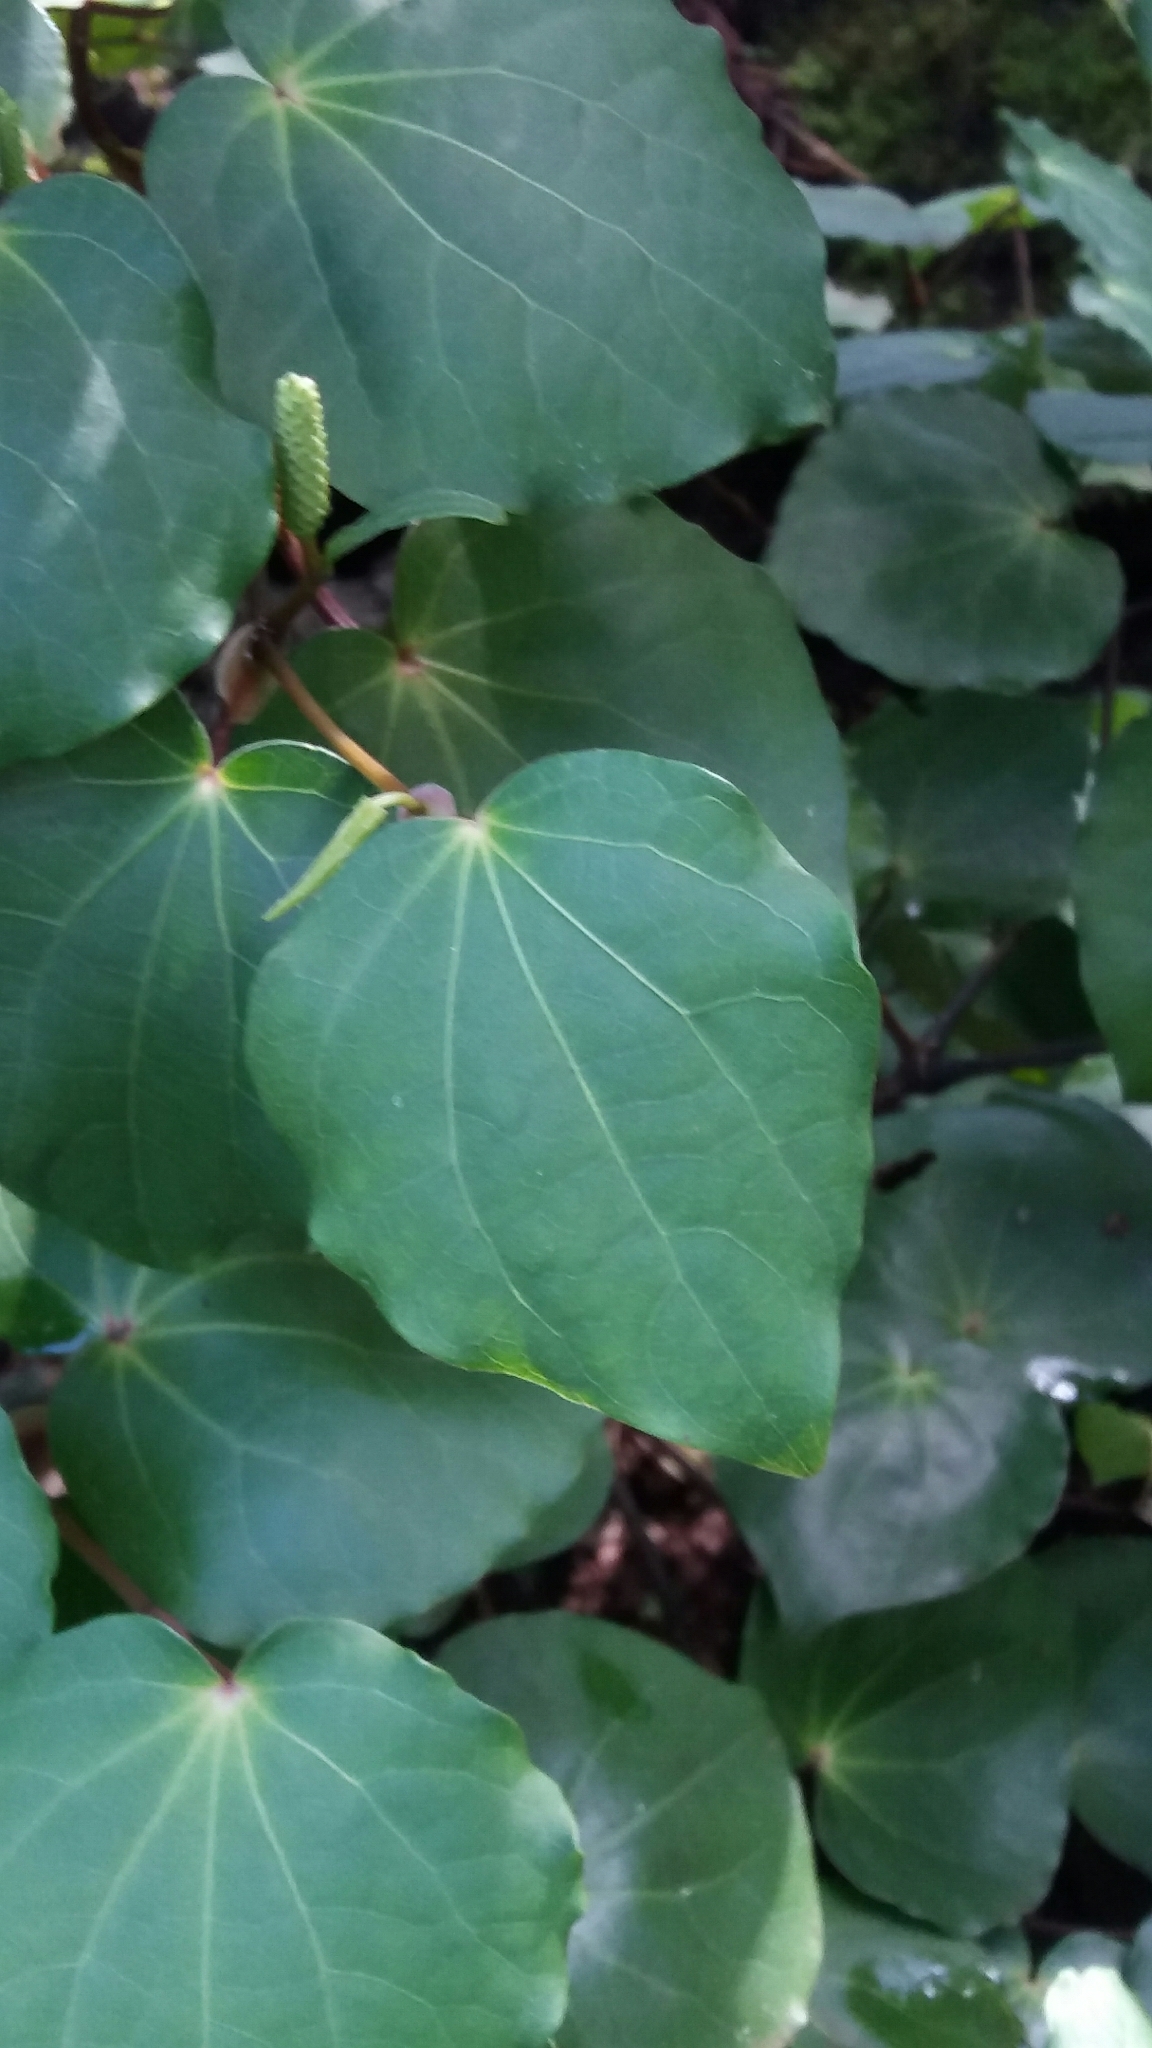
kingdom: Plantae
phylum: Tracheophyta
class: Magnoliopsida
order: Piperales
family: Piperaceae
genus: Macropiper
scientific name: Macropiper excelsum
